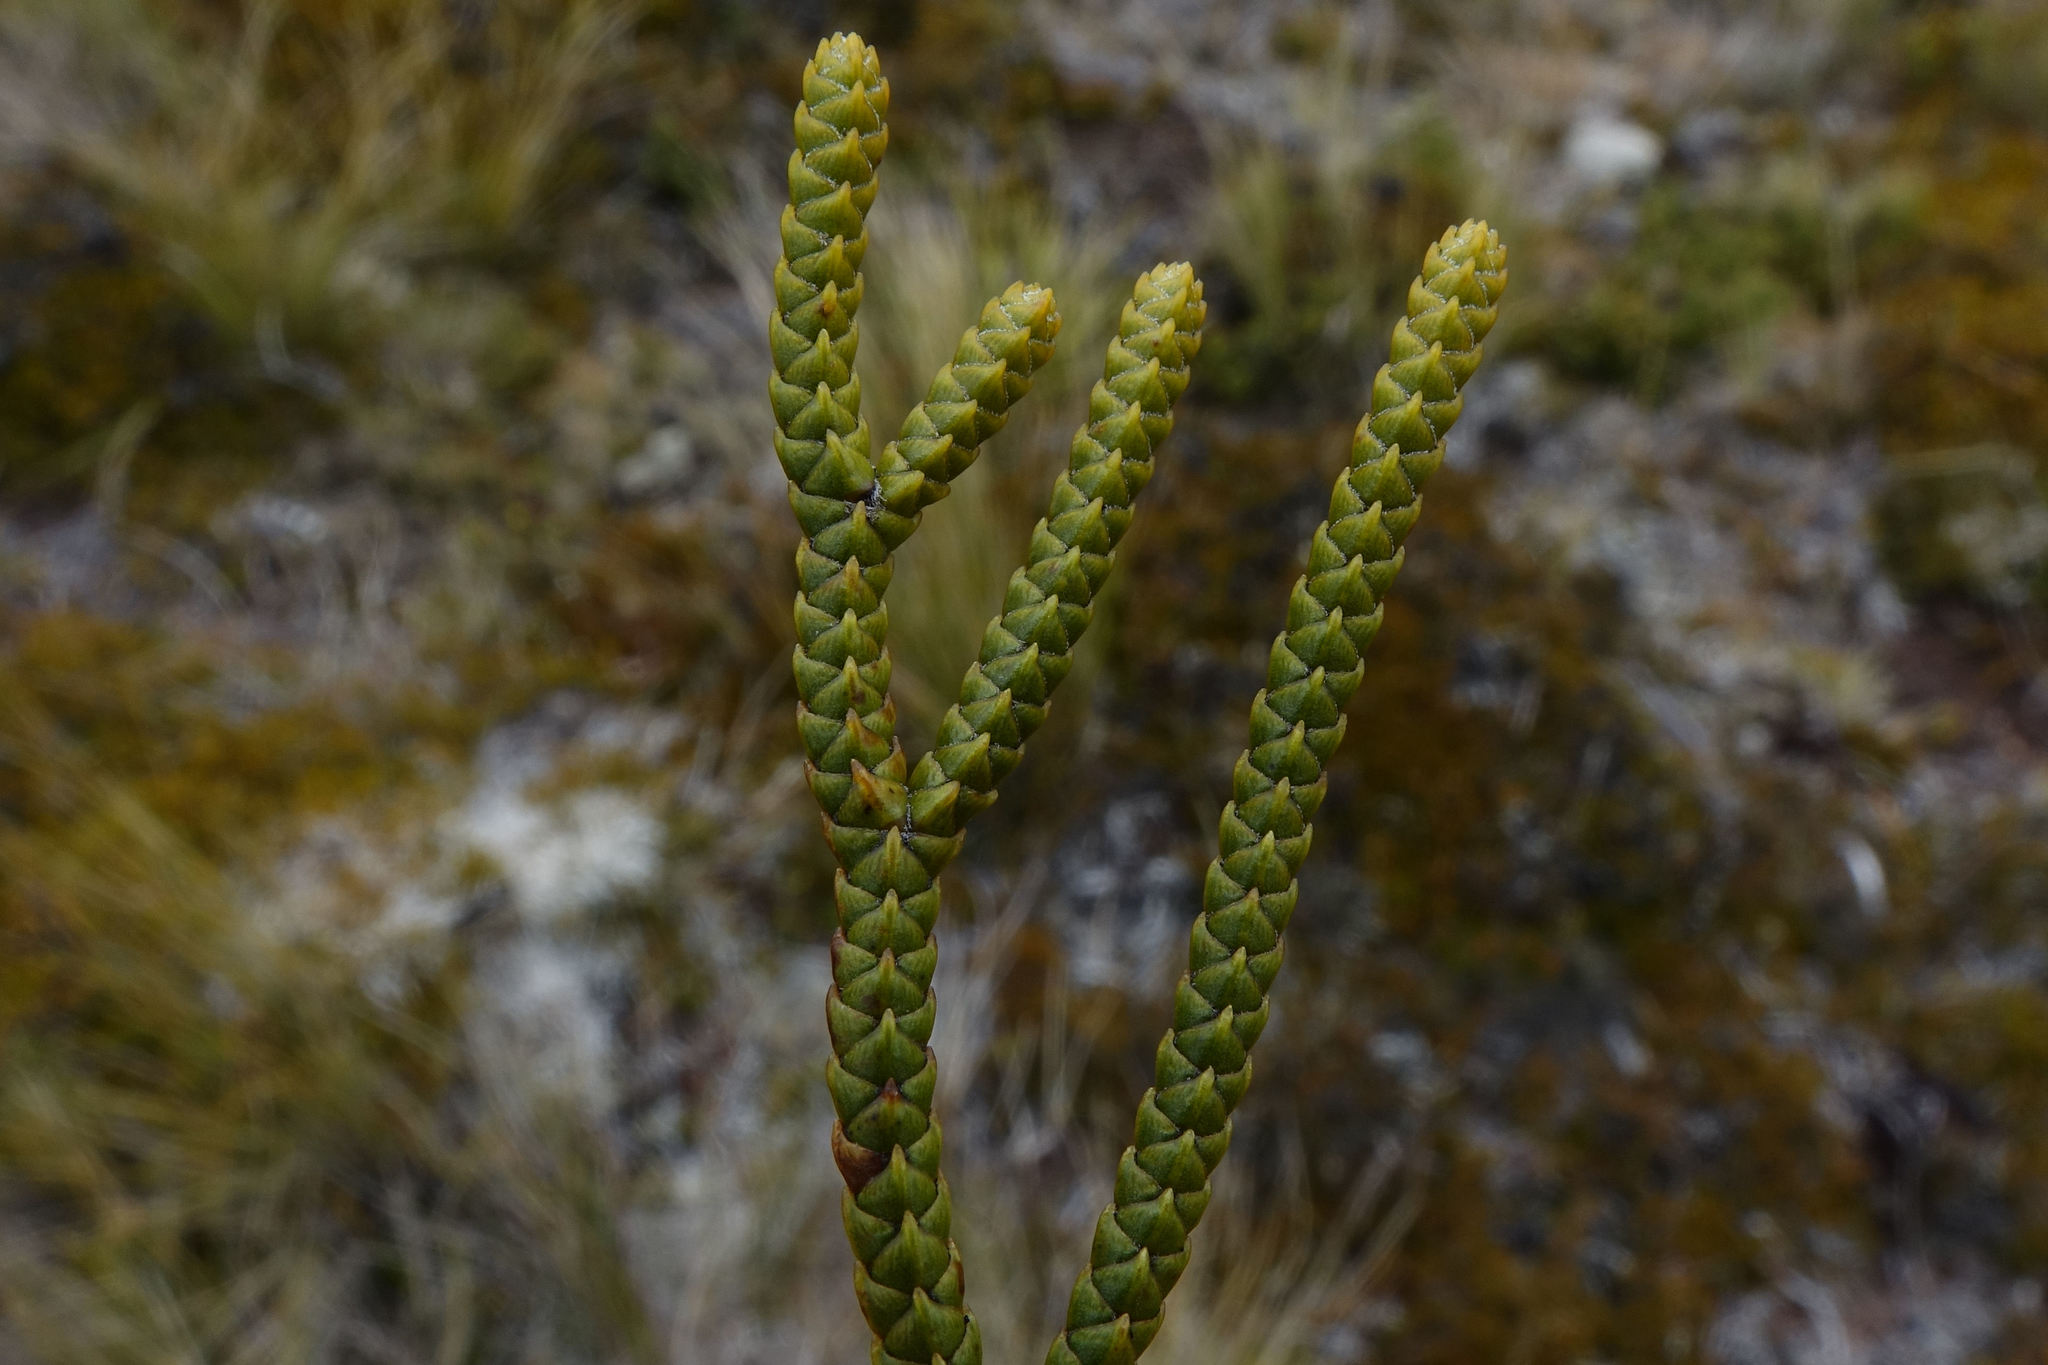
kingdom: Plantae
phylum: Tracheophyta
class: Magnoliopsida
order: Lamiales
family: Plantaginaceae
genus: Veronica
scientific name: Veronica lycopodioides
